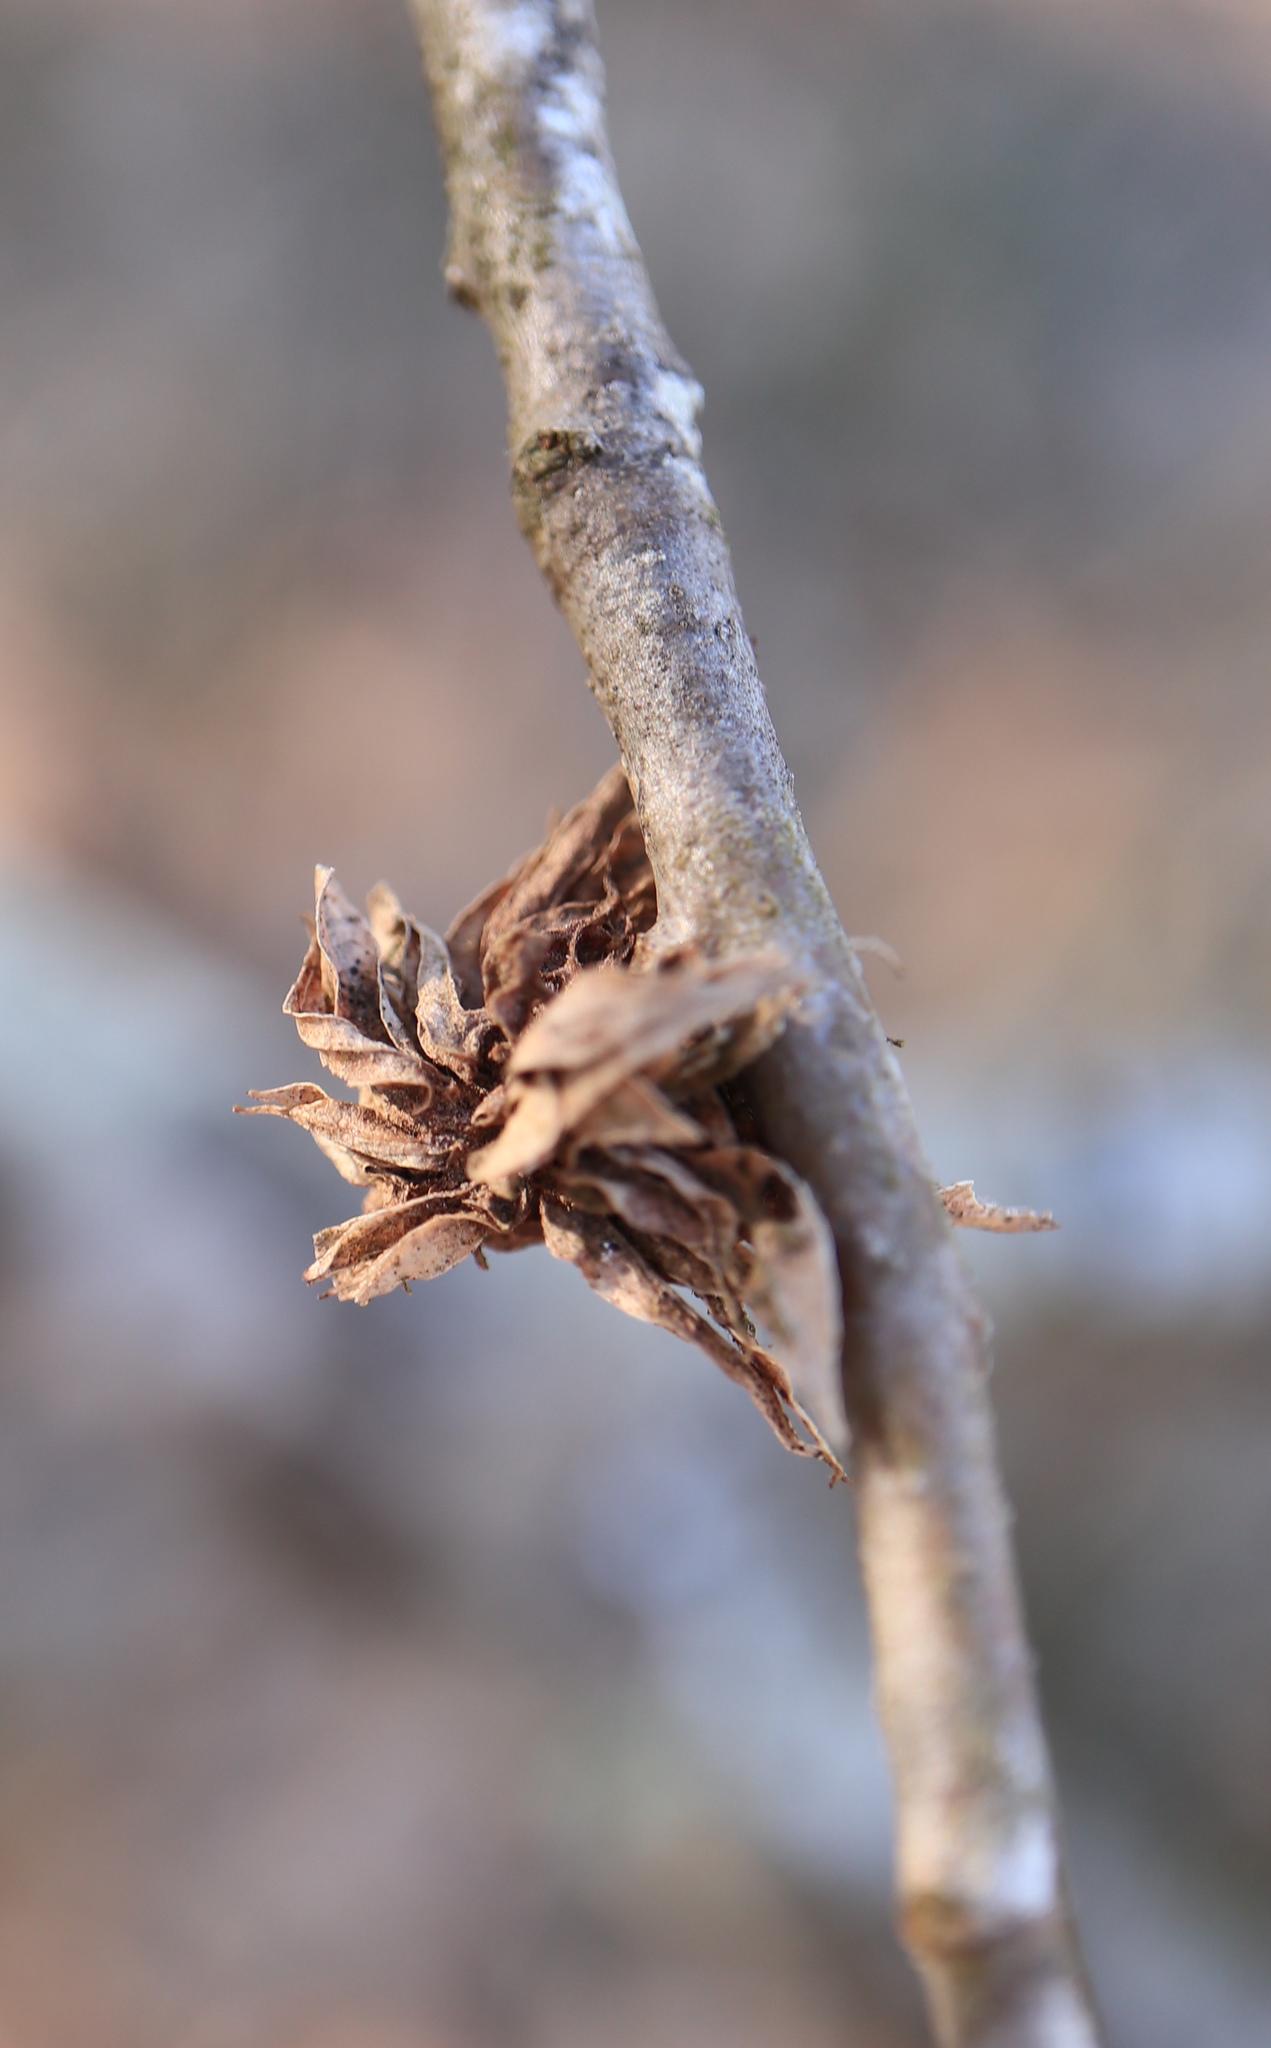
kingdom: Animalia
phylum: Arthropoda
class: Insecta
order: Hymenoptera
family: Cynipidae
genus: Dryocosmus
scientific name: Dryocosmus
